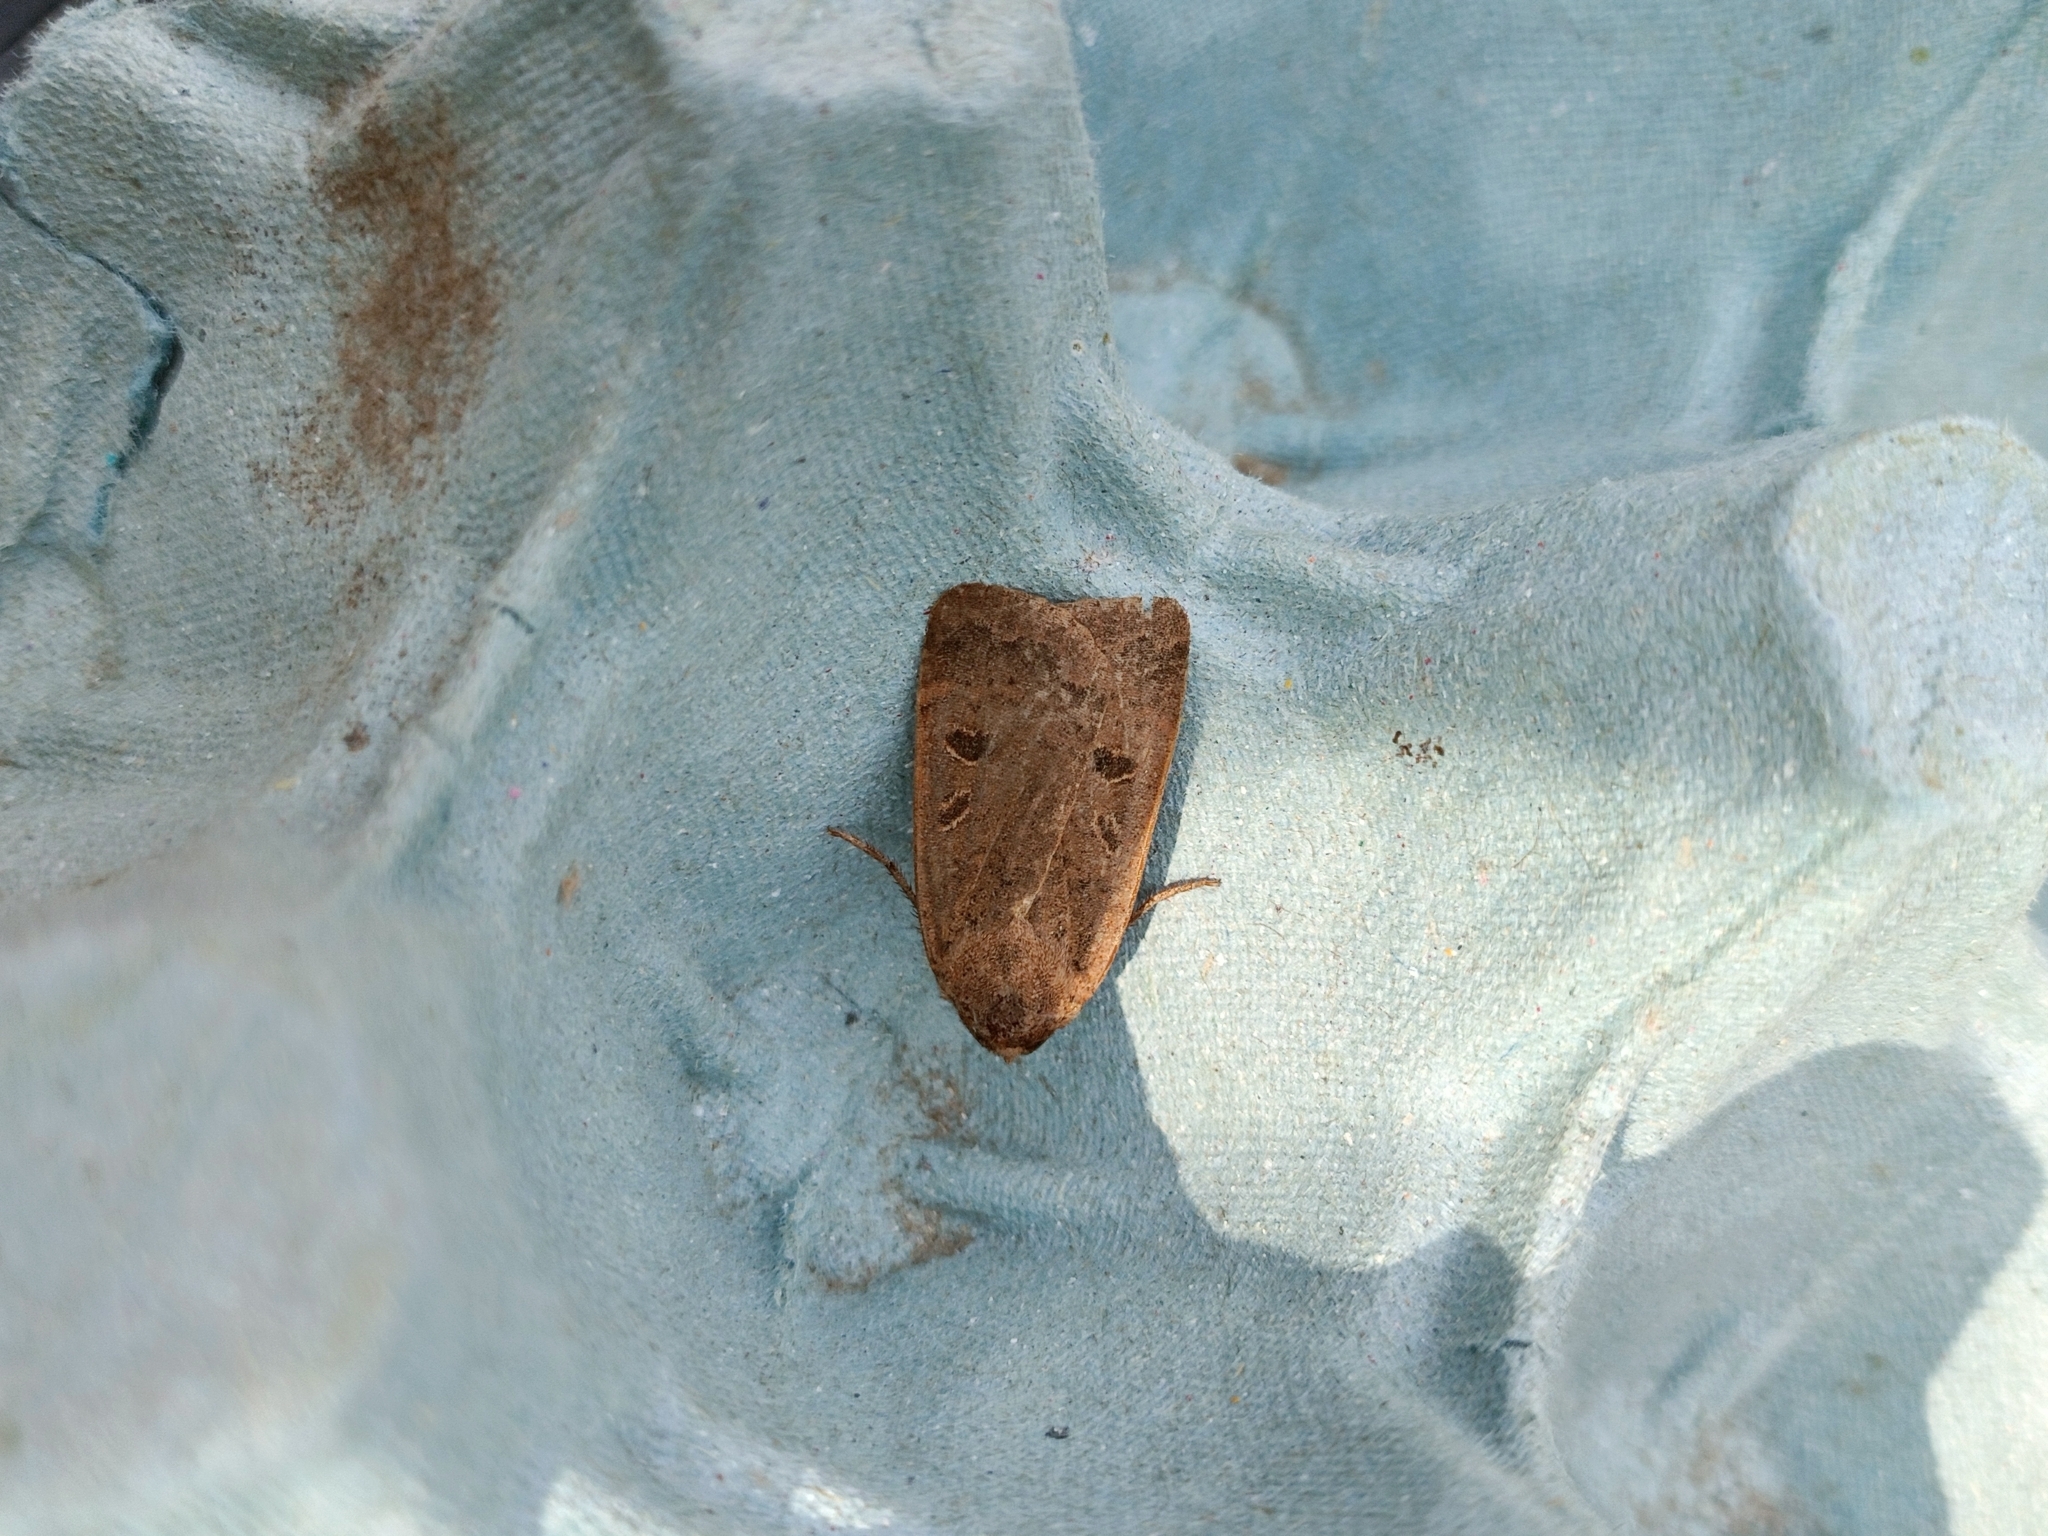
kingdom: Animalia
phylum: Arthropoda
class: Insecta
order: Lepidoptera
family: Noctuidae
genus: Noctua
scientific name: Noctua comes
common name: Lesser yellow underwing
